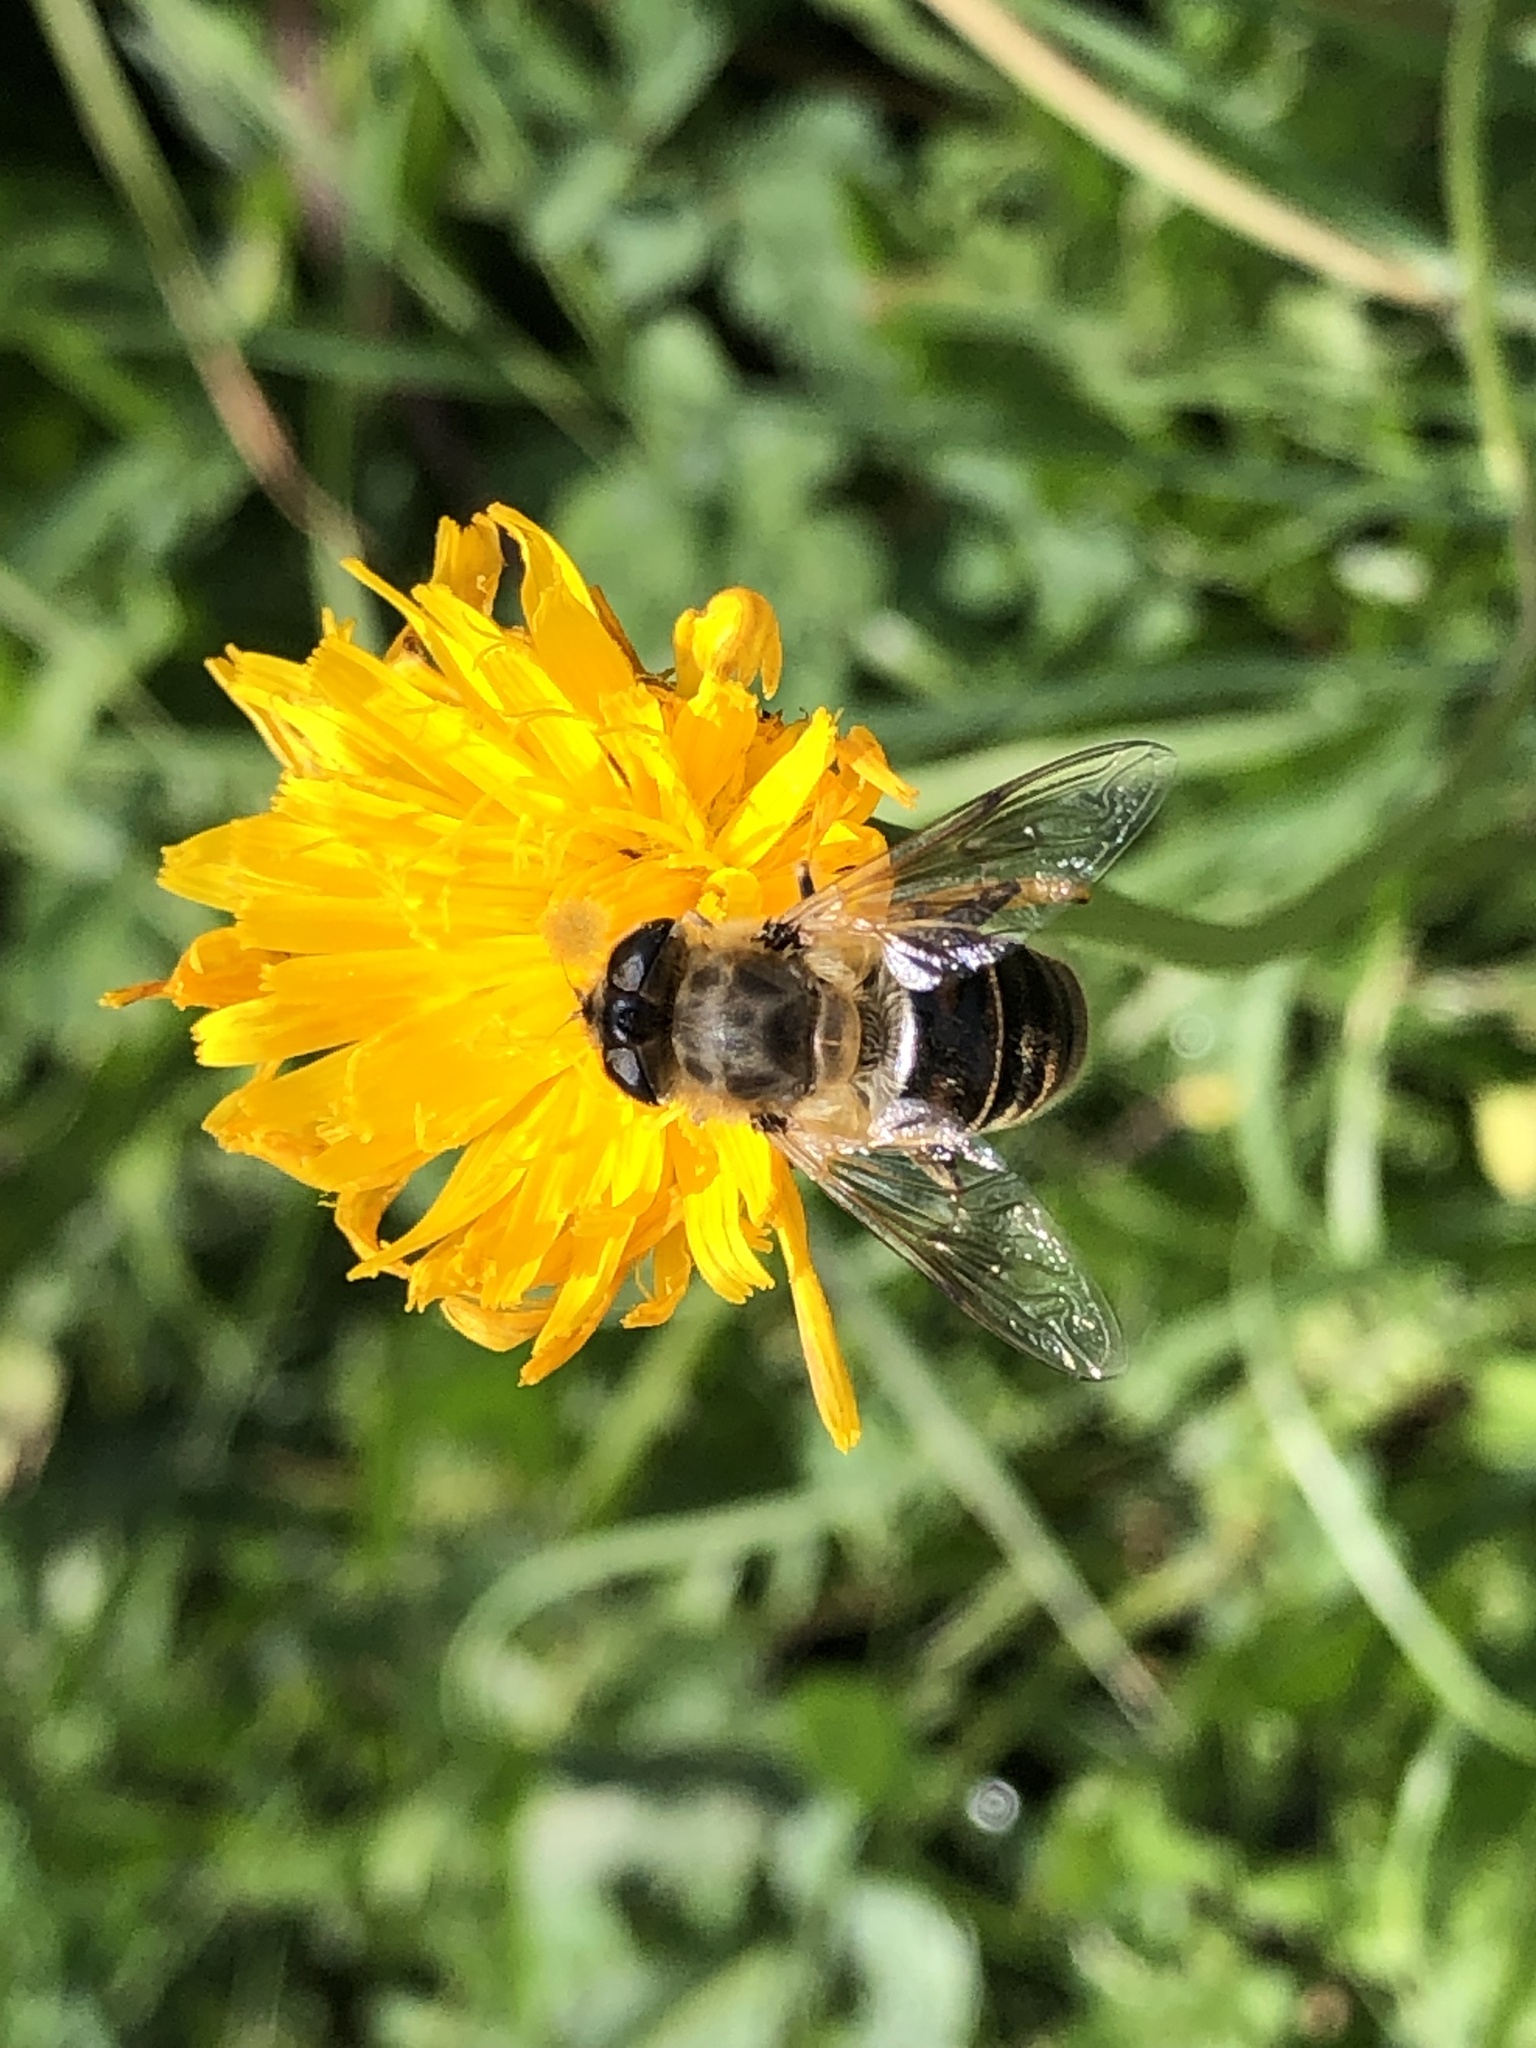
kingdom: Animalia
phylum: Arthropoda
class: Insecta
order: Diptera
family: Syrphidae
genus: Eristalis
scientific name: Eristalis tenax
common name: Drone fly
